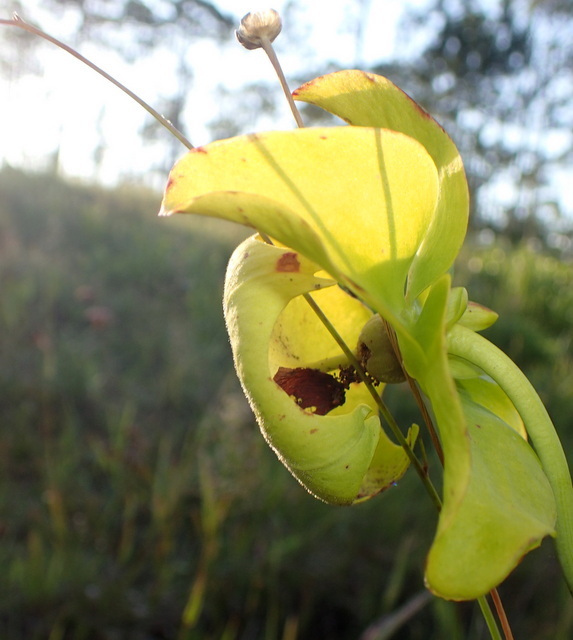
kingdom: Plantae
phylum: Tracheophyta
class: Magnoliopsida
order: Ericales
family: Sarraceniaceae
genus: Sarracenia
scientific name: Sarracenia flava
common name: Trumpets
